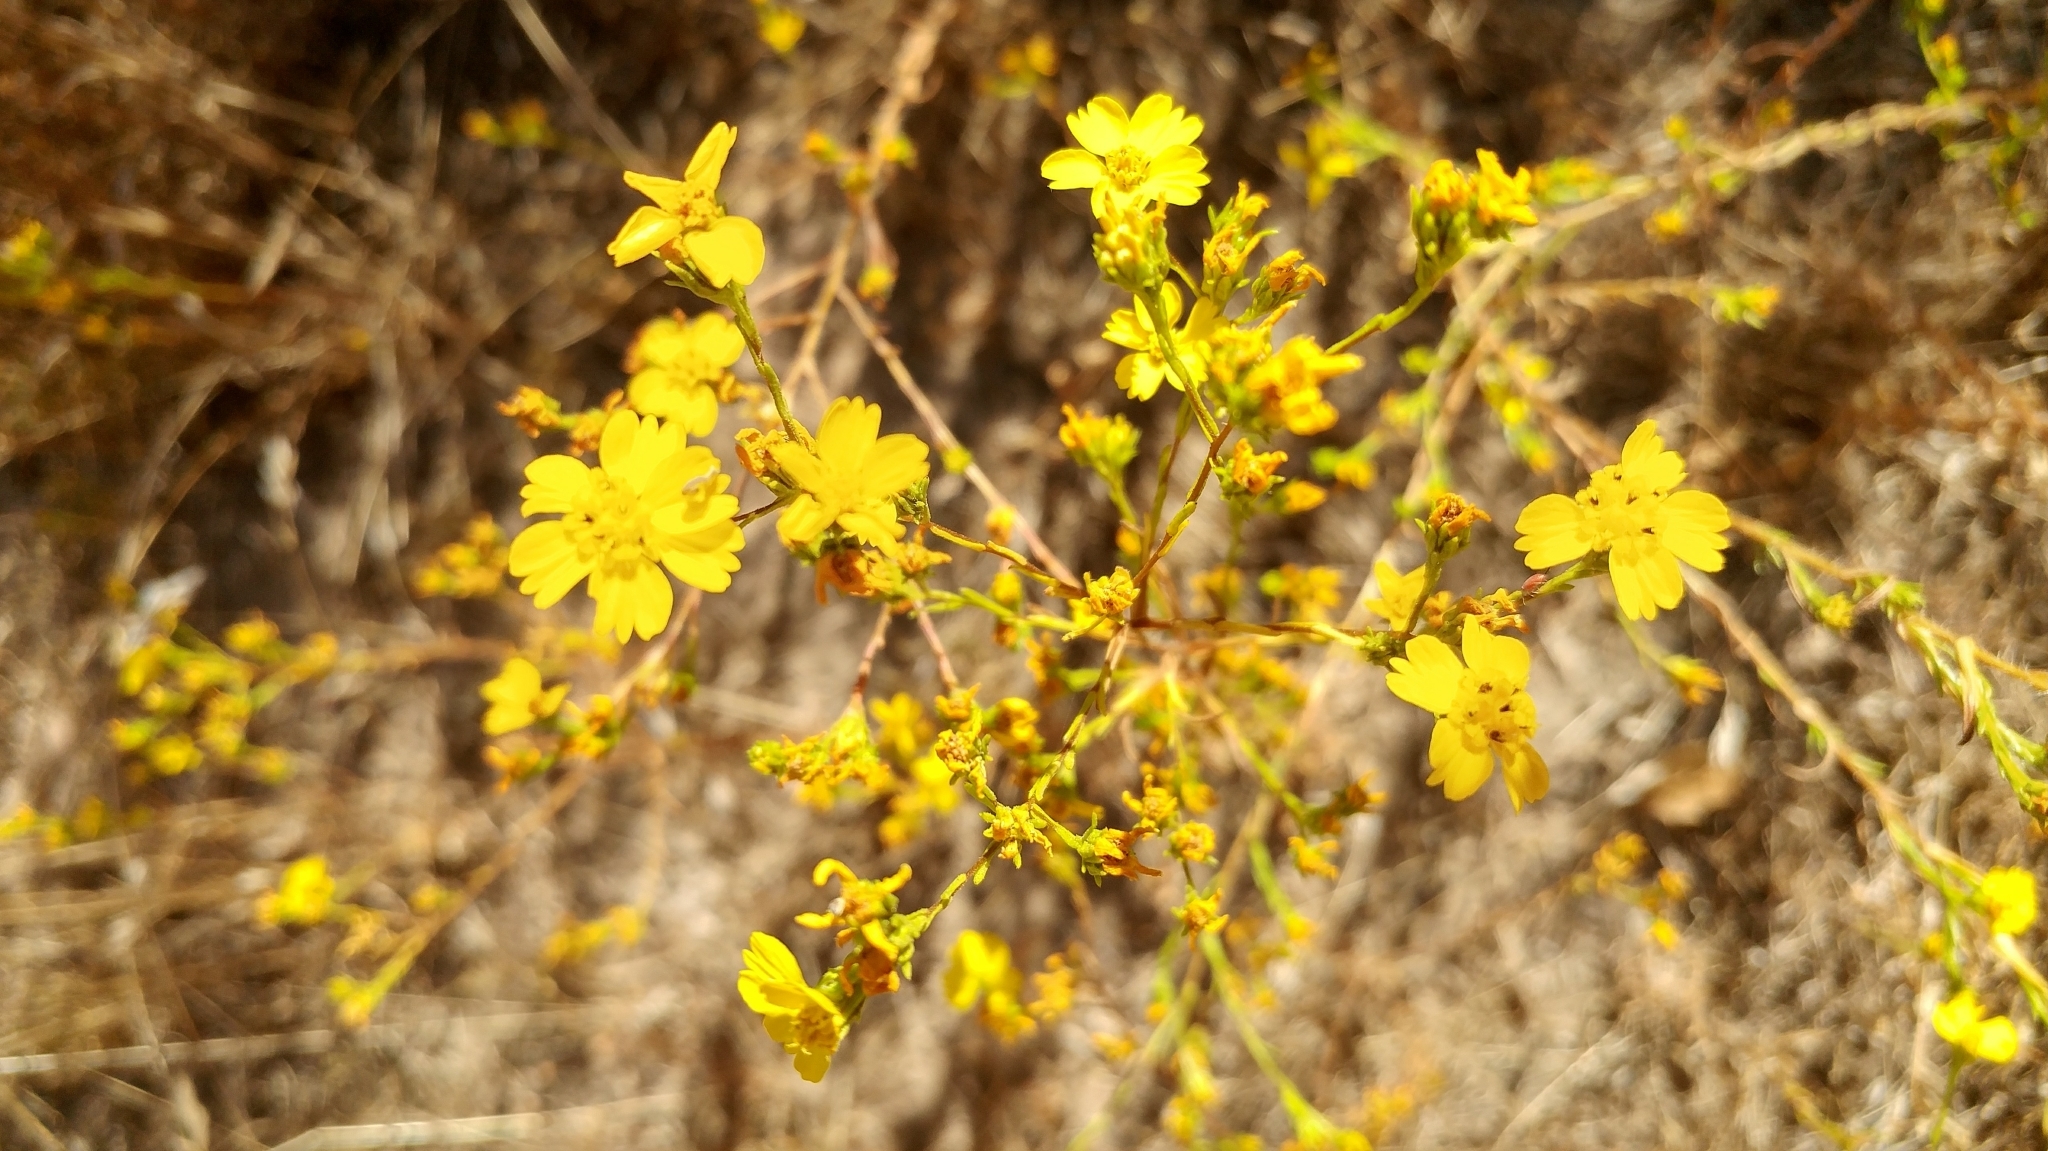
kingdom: Plantae
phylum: Tracheophyta
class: Magnoliopsida
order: Asterales
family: Asteraceae
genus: Deinandra
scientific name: Deinandra fasciculata
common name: Clustered tarweed
